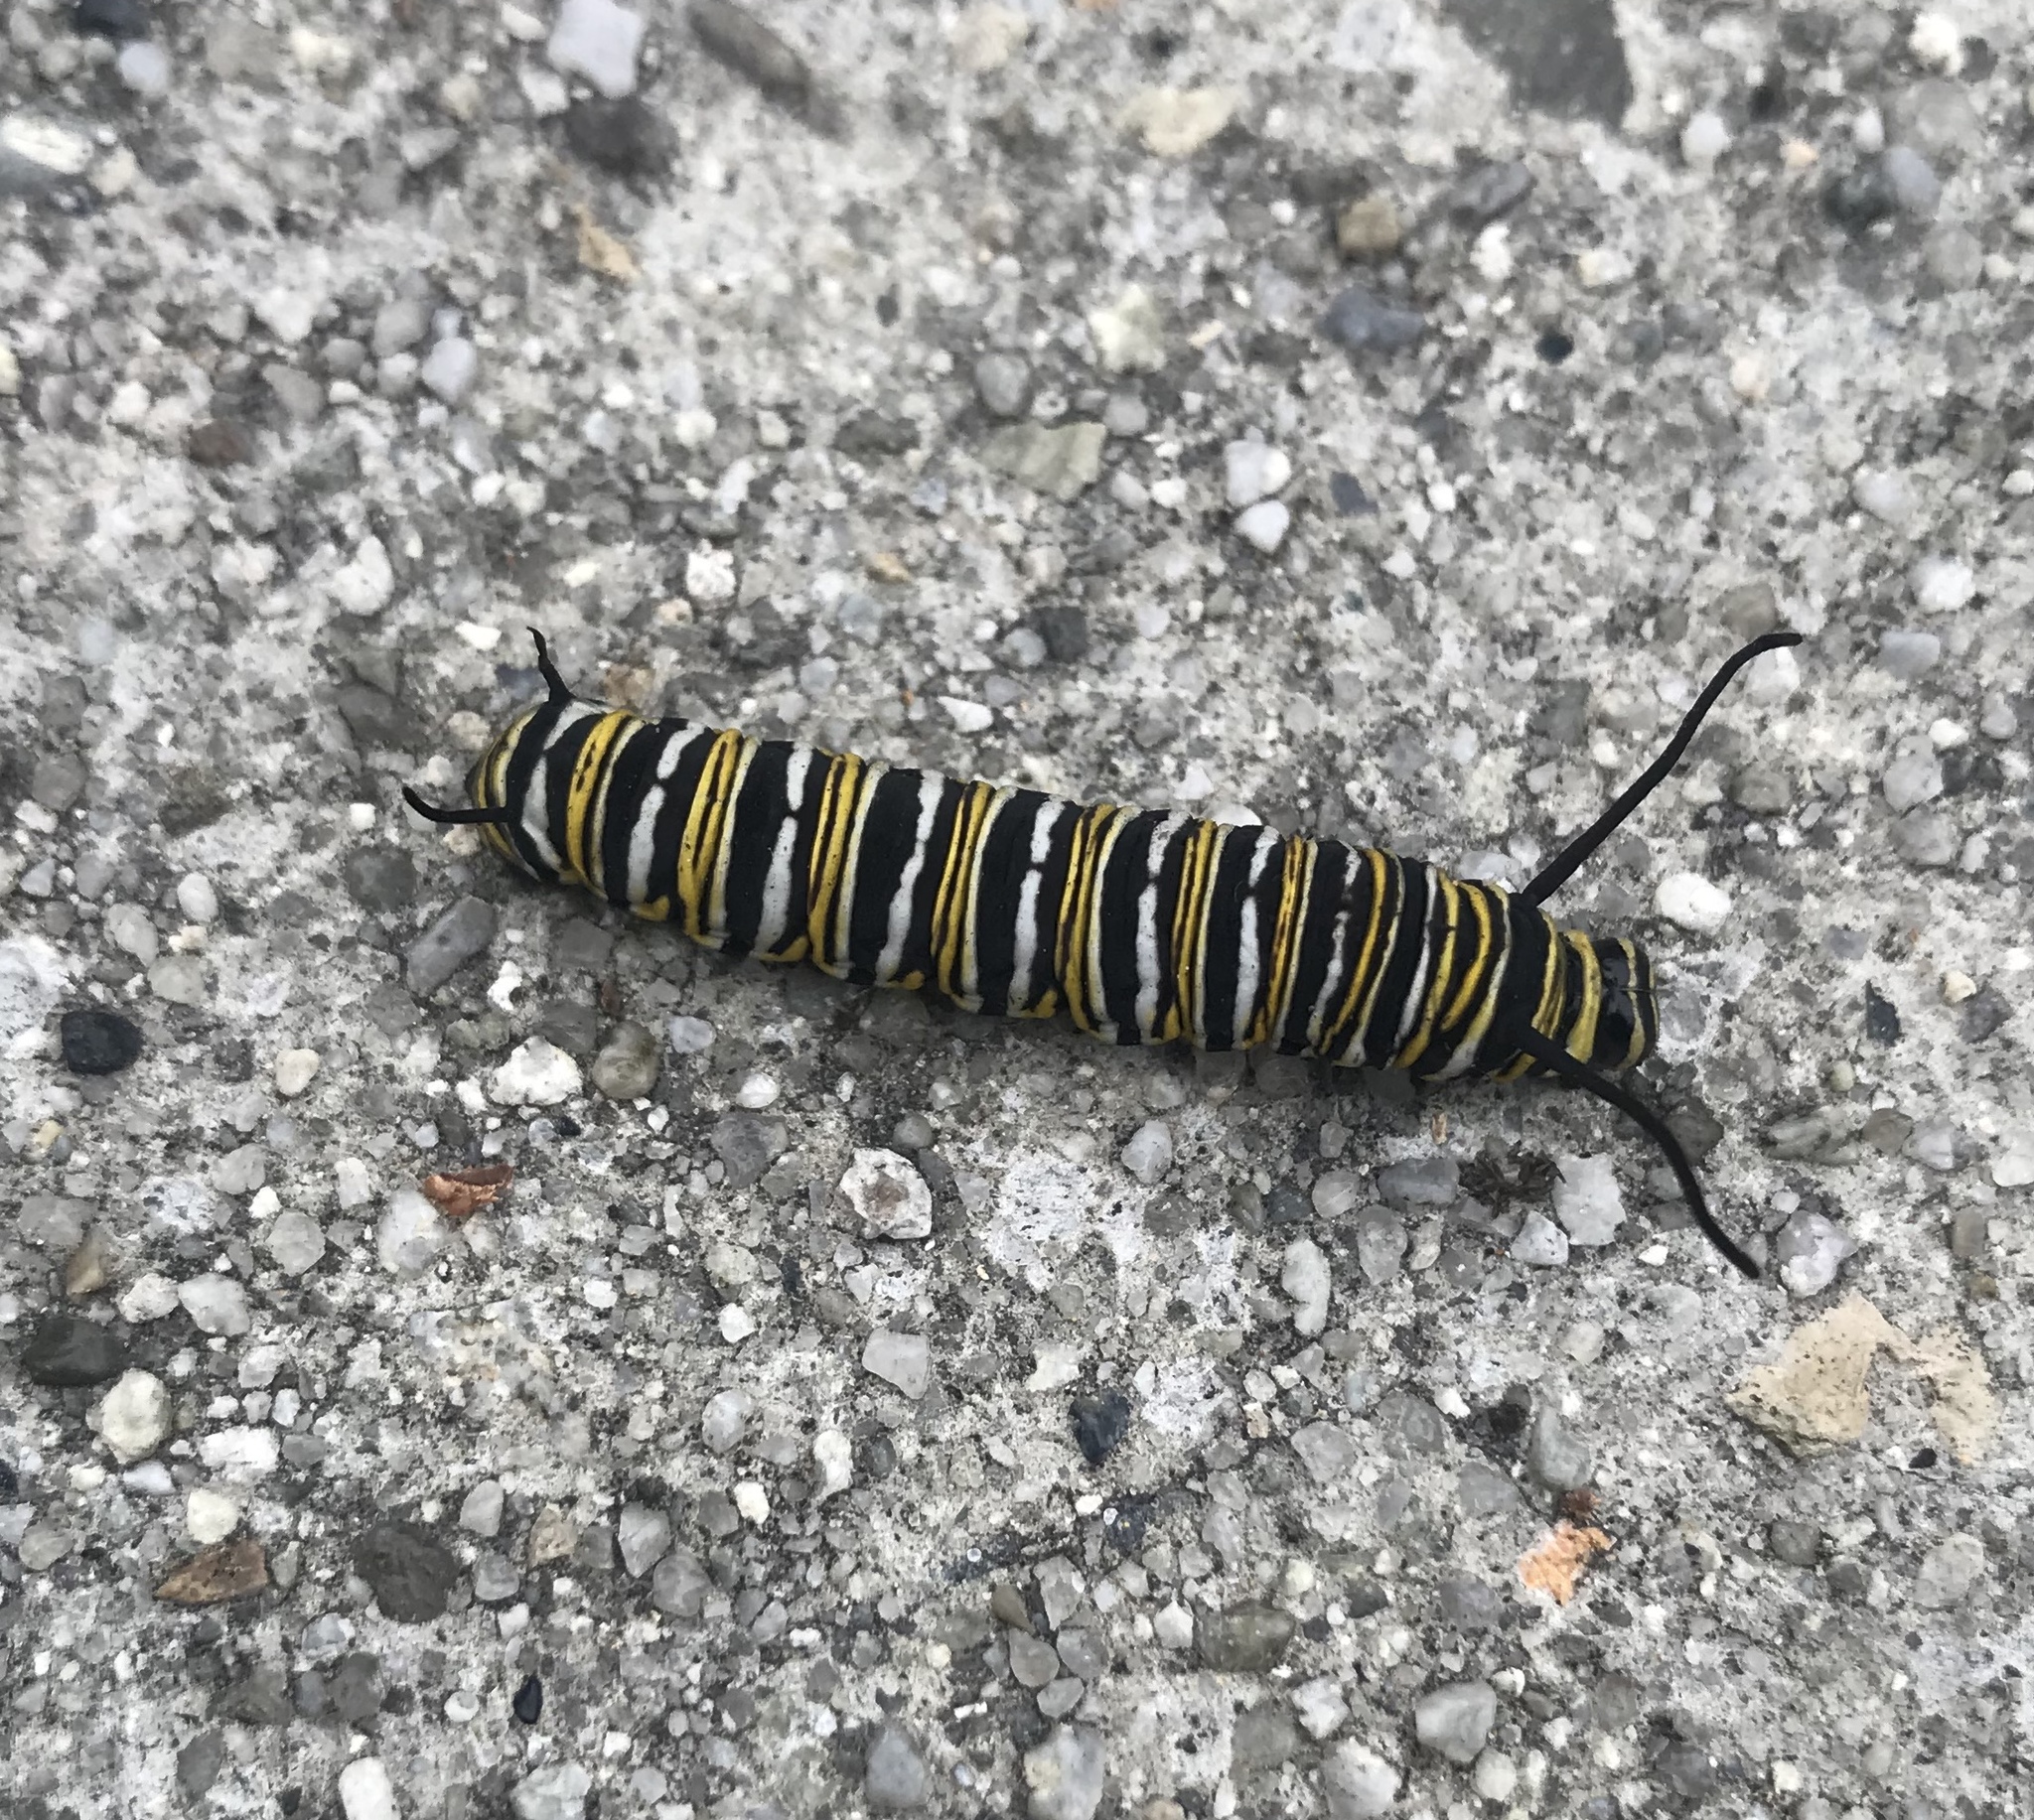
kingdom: Animalia
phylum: Arthropoda
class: Insecta
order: Lepidoptera
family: Nymphalidae
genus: Danaus
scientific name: Danaus plexippus
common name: Monarch
